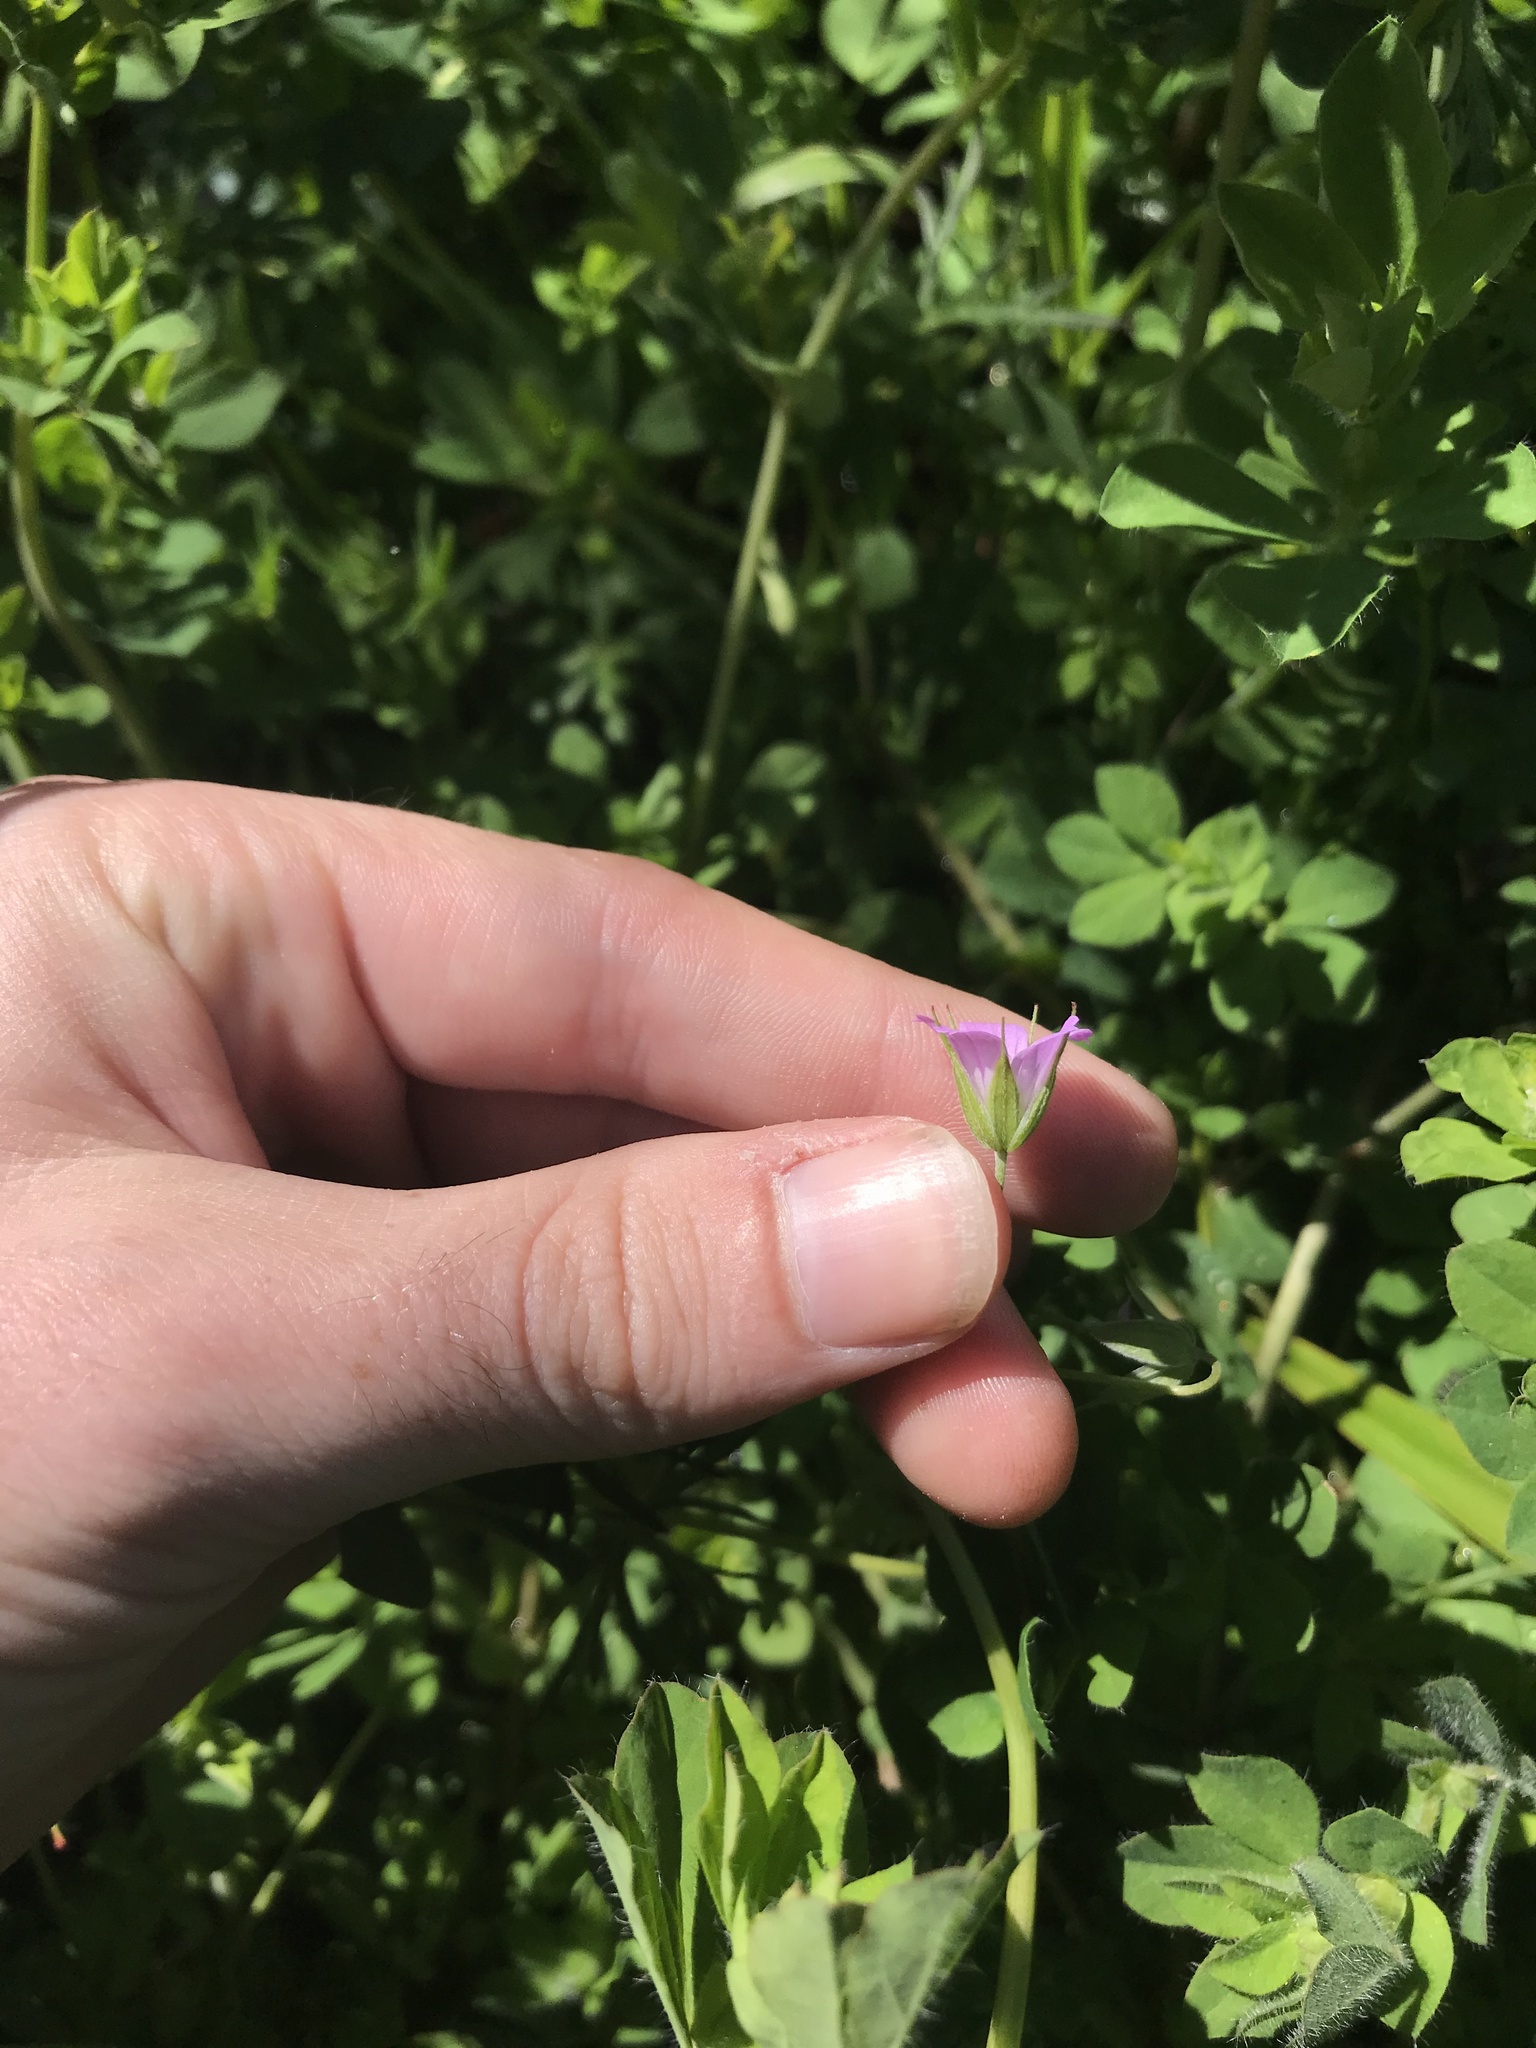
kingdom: Plantae
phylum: Tracheophyta
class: Magnoliopsida
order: Geraniales
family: Geraniaceae
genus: Geranium
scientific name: Geranium columbinum
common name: Long-stalked crane's-bill
